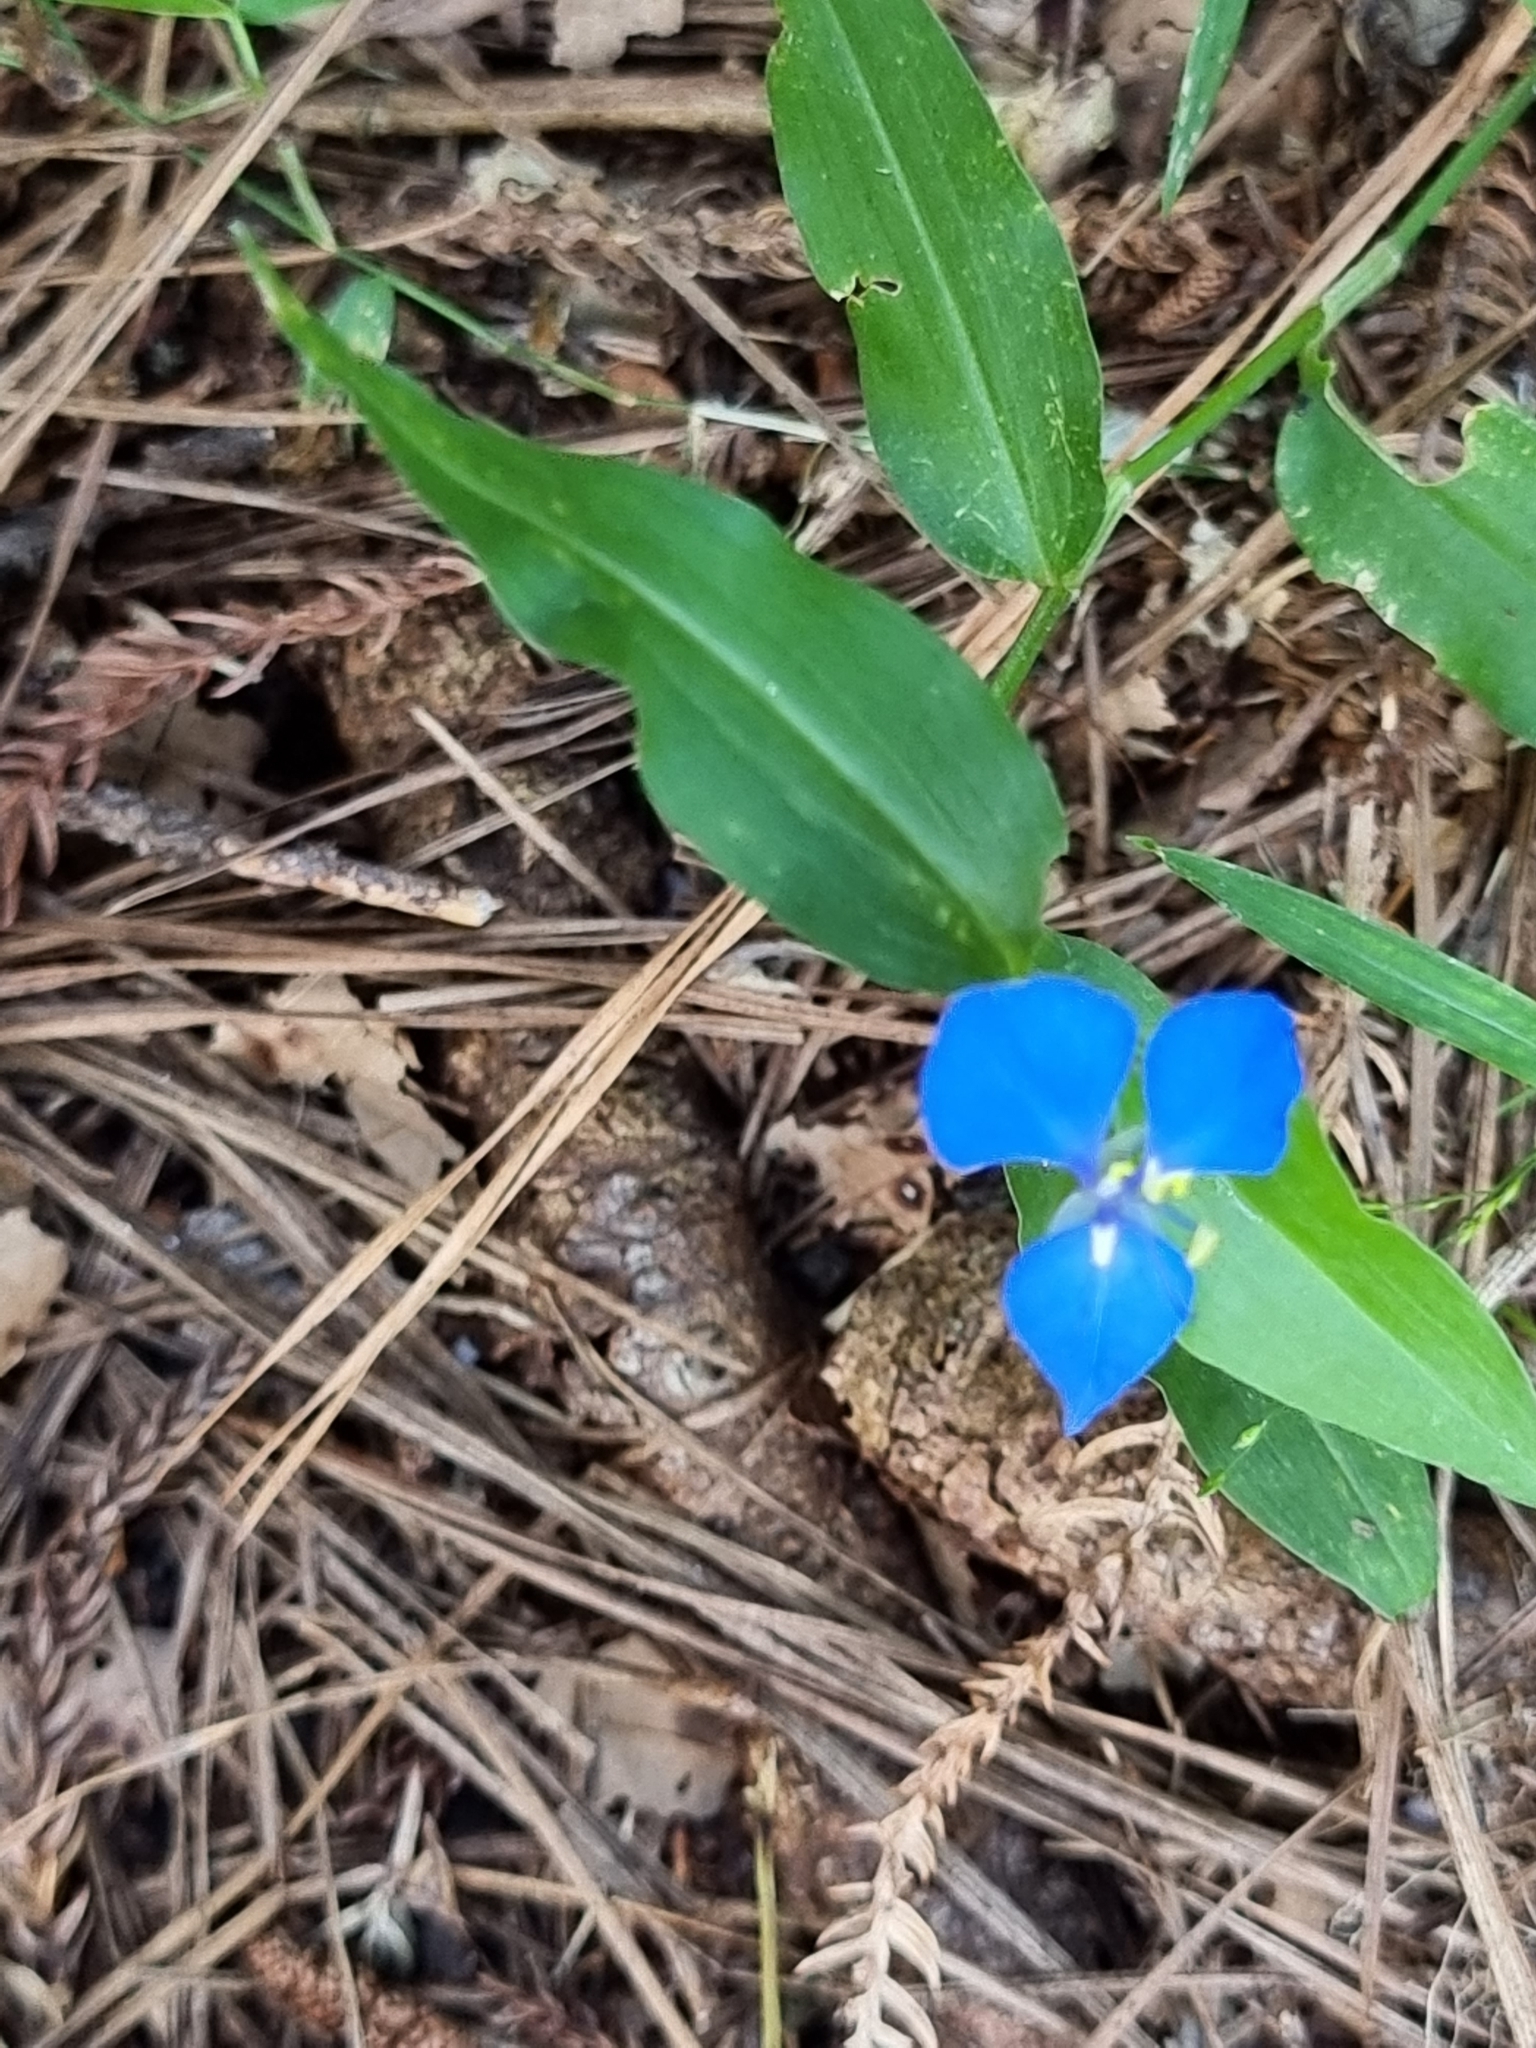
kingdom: Plantae
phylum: Tracheophyta
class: Liliopsida
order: Commelinales
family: Commelinaceae
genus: Commelina
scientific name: Commelina cyanea
